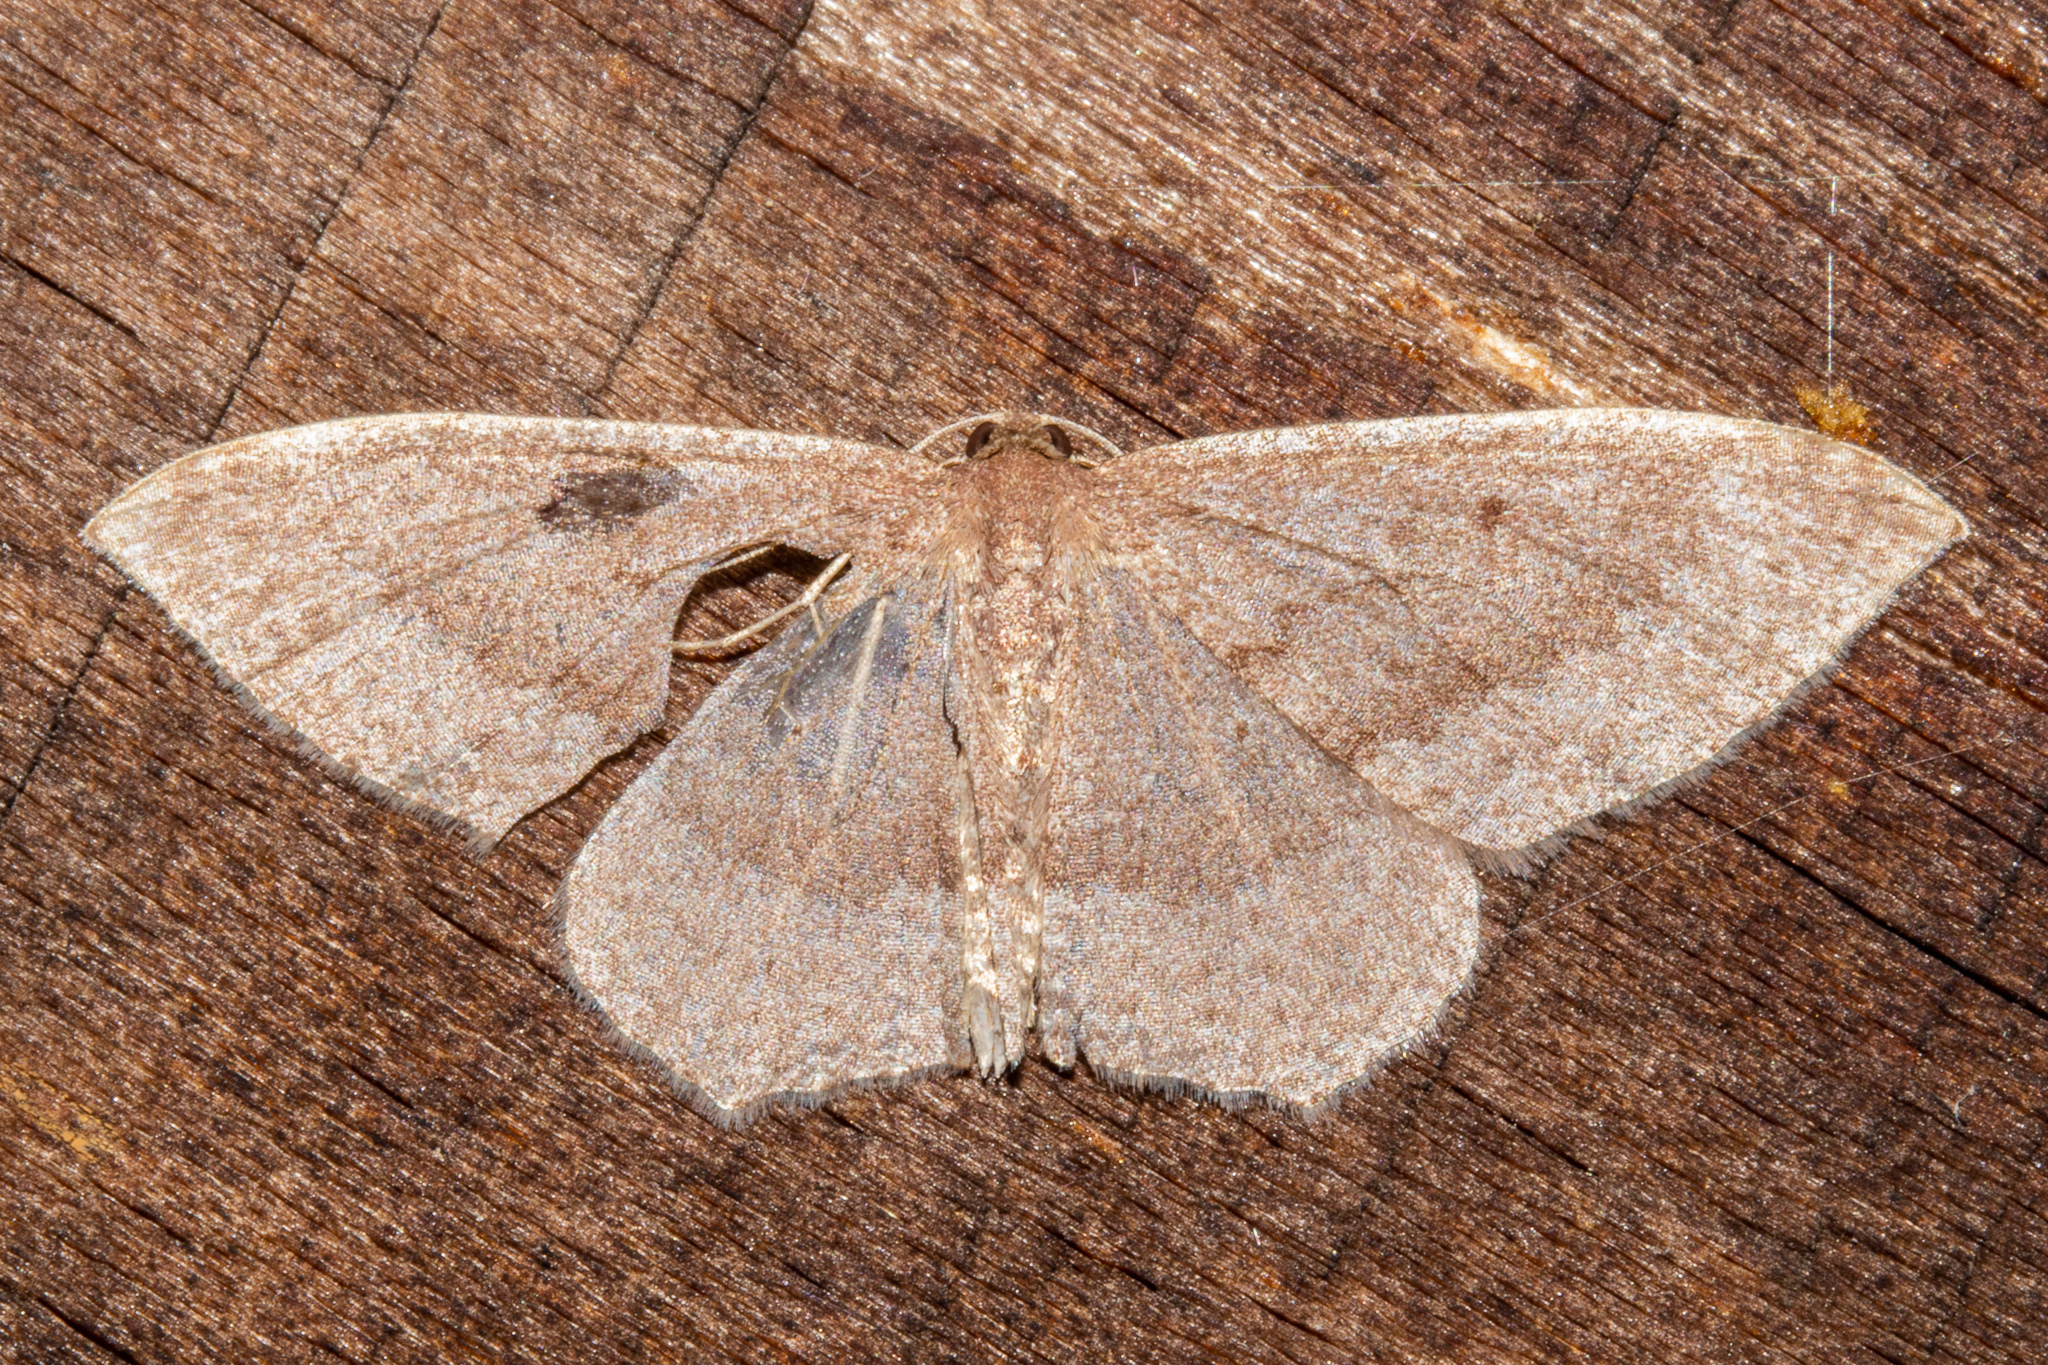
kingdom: Animalia
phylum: Arthropoda
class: Insecta
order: Lepidoptera
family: Geometridae
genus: Poecilasthena
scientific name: Poecilasthena schistaria
